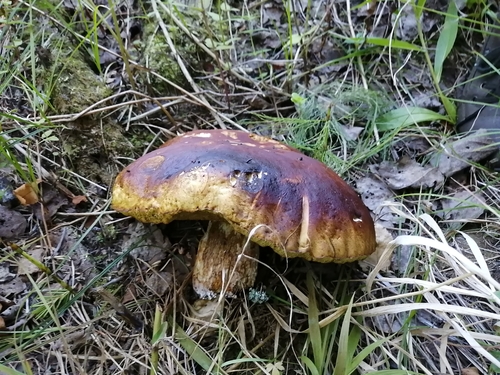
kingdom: Fungi
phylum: Basidiomycota
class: Agaricomycetes
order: Boletales
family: Boletaceae
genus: Boletus
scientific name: Boletus edulis
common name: Cep
